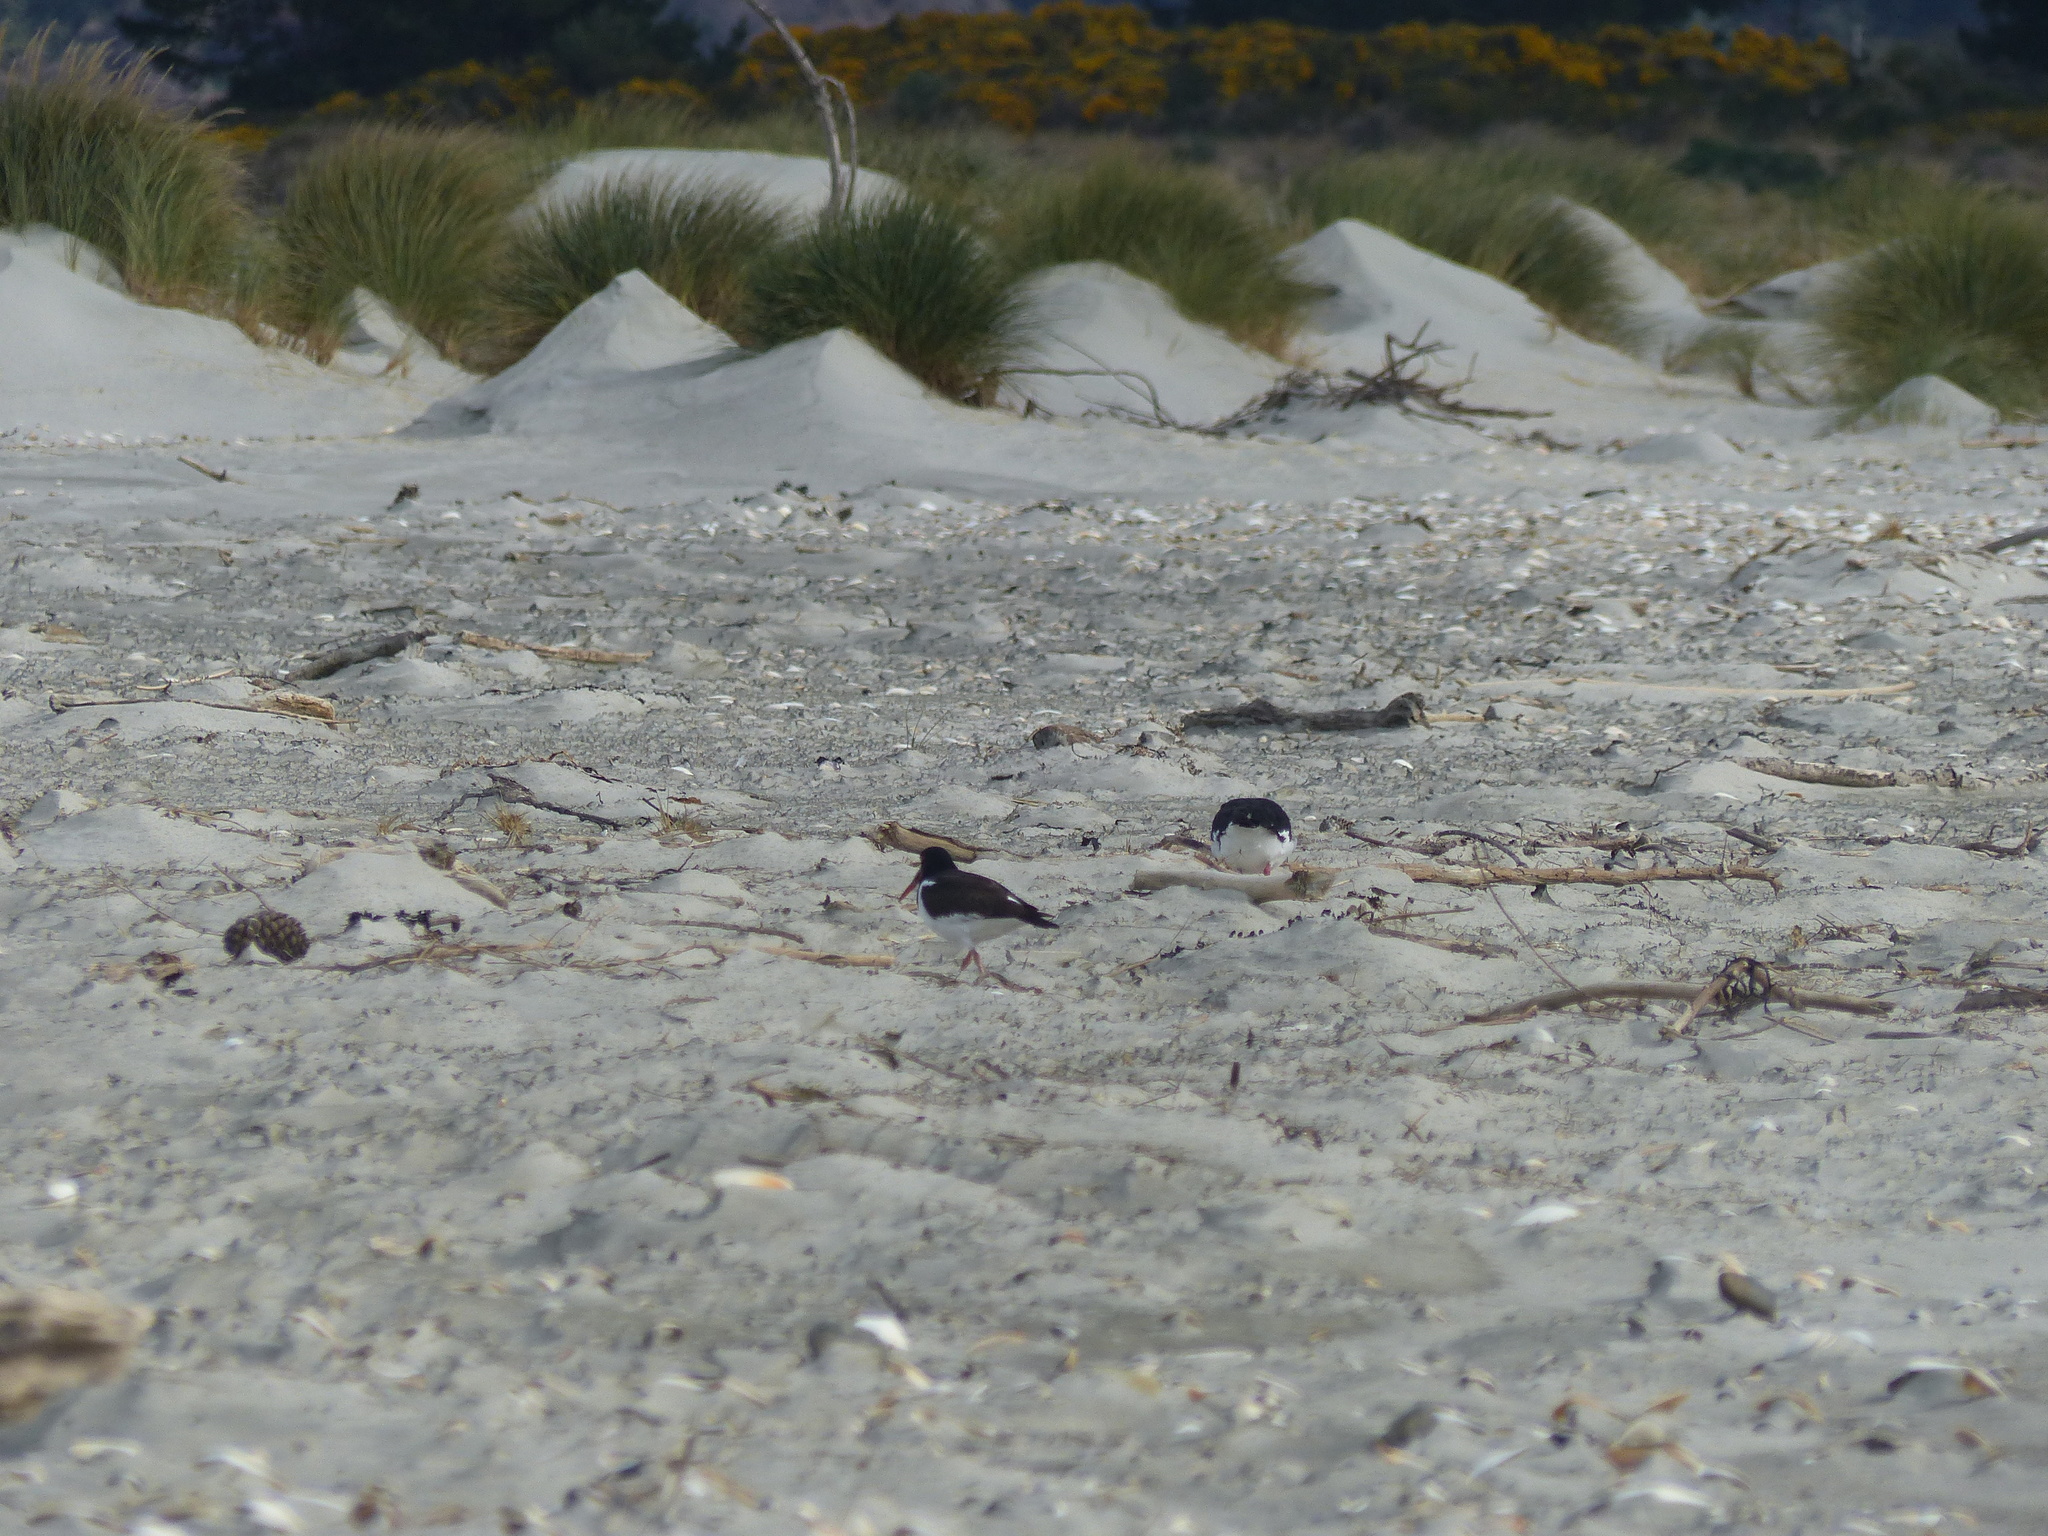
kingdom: Animalia
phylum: Chordata
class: Aves
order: Charadriiformes
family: Haematopodidae
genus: Haematopus
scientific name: Haematopus finschi
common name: South island oystercatcher
